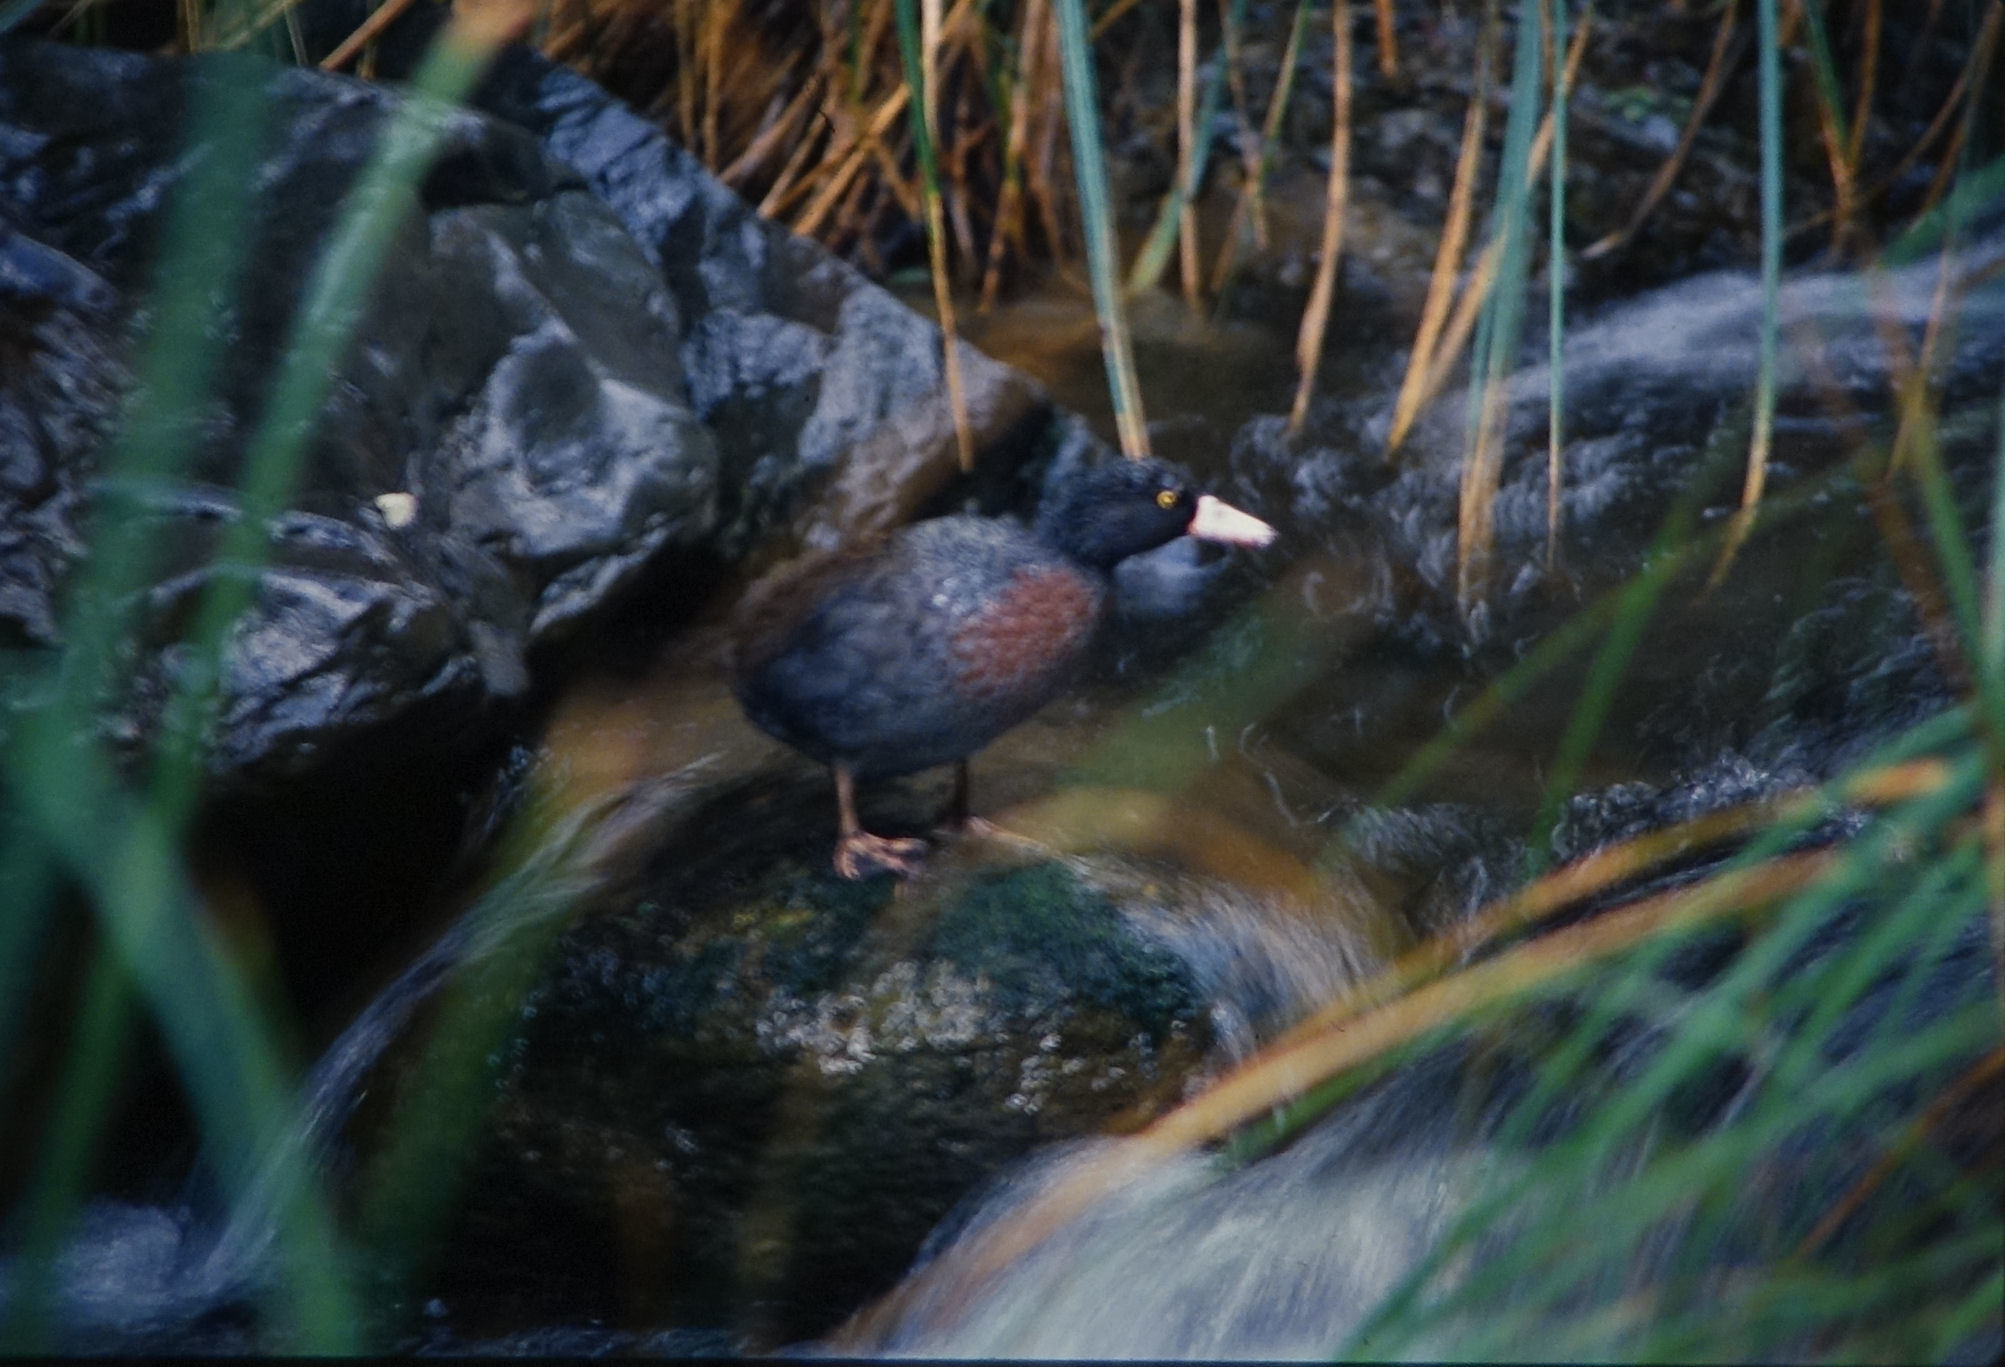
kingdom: Animalia
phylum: Chordata
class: Aves
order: Anseriformes
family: Anatidae
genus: Hymenolaimus
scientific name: Hymenolaimus malacorhynchos
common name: Blue duck
